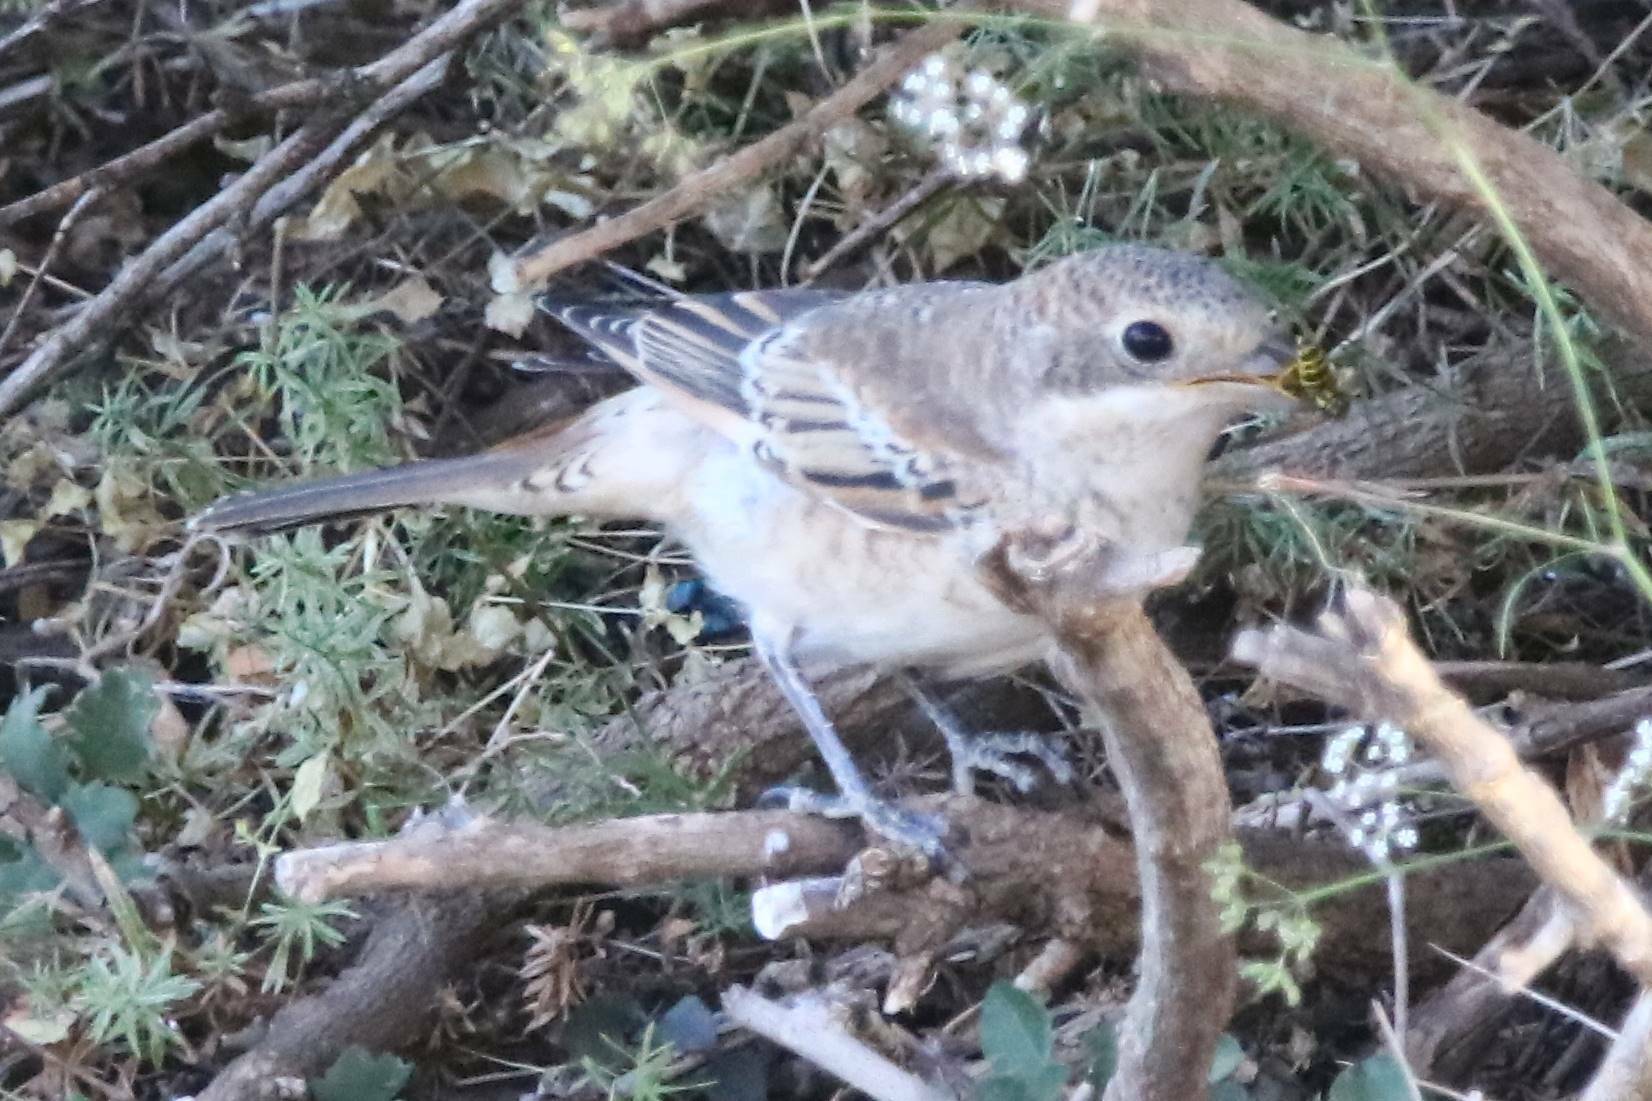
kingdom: Animalia
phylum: Chordata
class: Aves
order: Passeriformes
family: Laniidae
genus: Lanius
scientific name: Lanius senator
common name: Woodchat shrike
